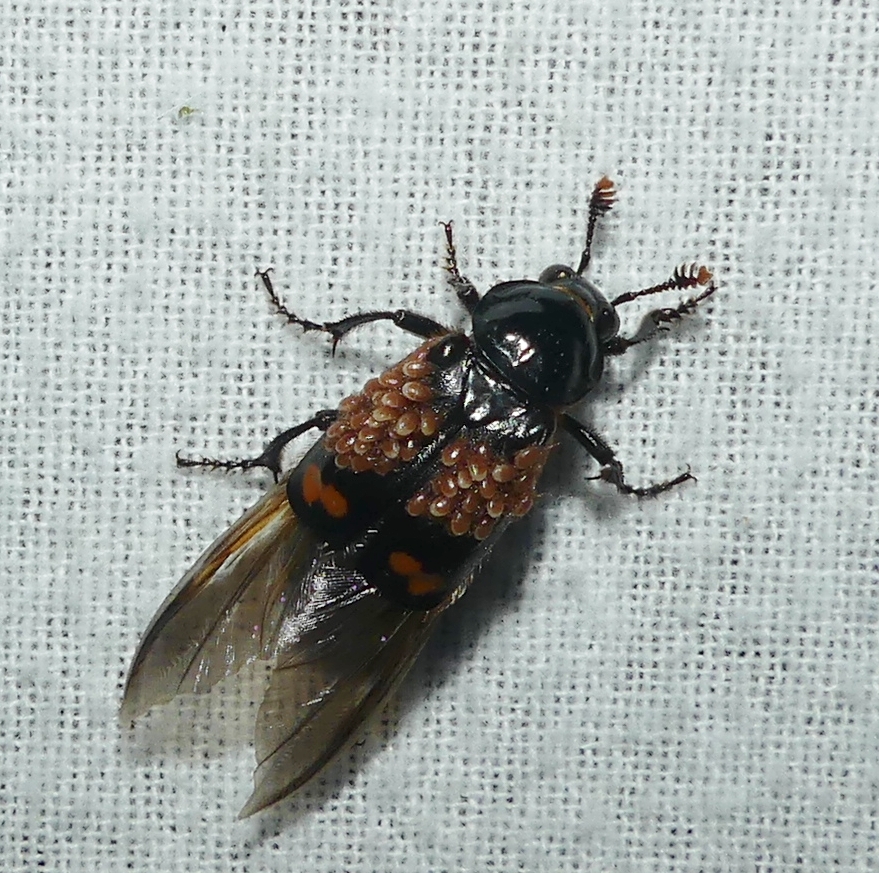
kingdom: Animalia
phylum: Arthropoda
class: Insecta
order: Coleoptera
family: Staphylinidae
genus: Nicrophorus
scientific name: Nicrophorus sayi
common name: Say's burying beetle
